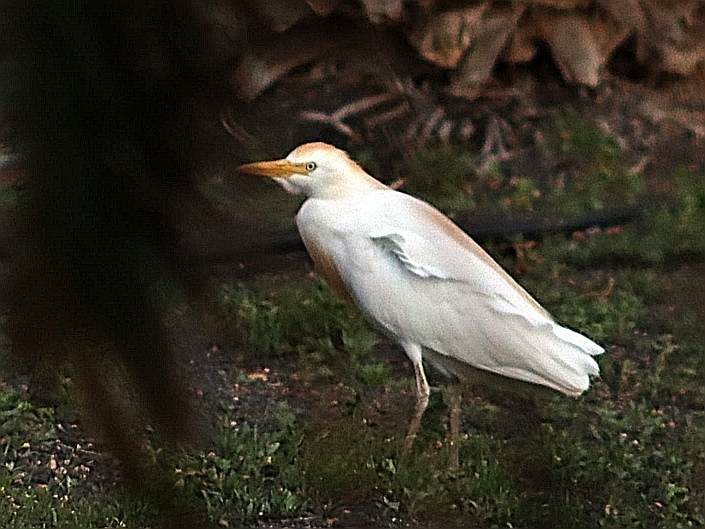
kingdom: Animalia
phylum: Chordata
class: Aves
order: Pelecaniformes
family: Ardeidae
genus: Bubulcus
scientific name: Bubulcus ibis
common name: Cattle egret
